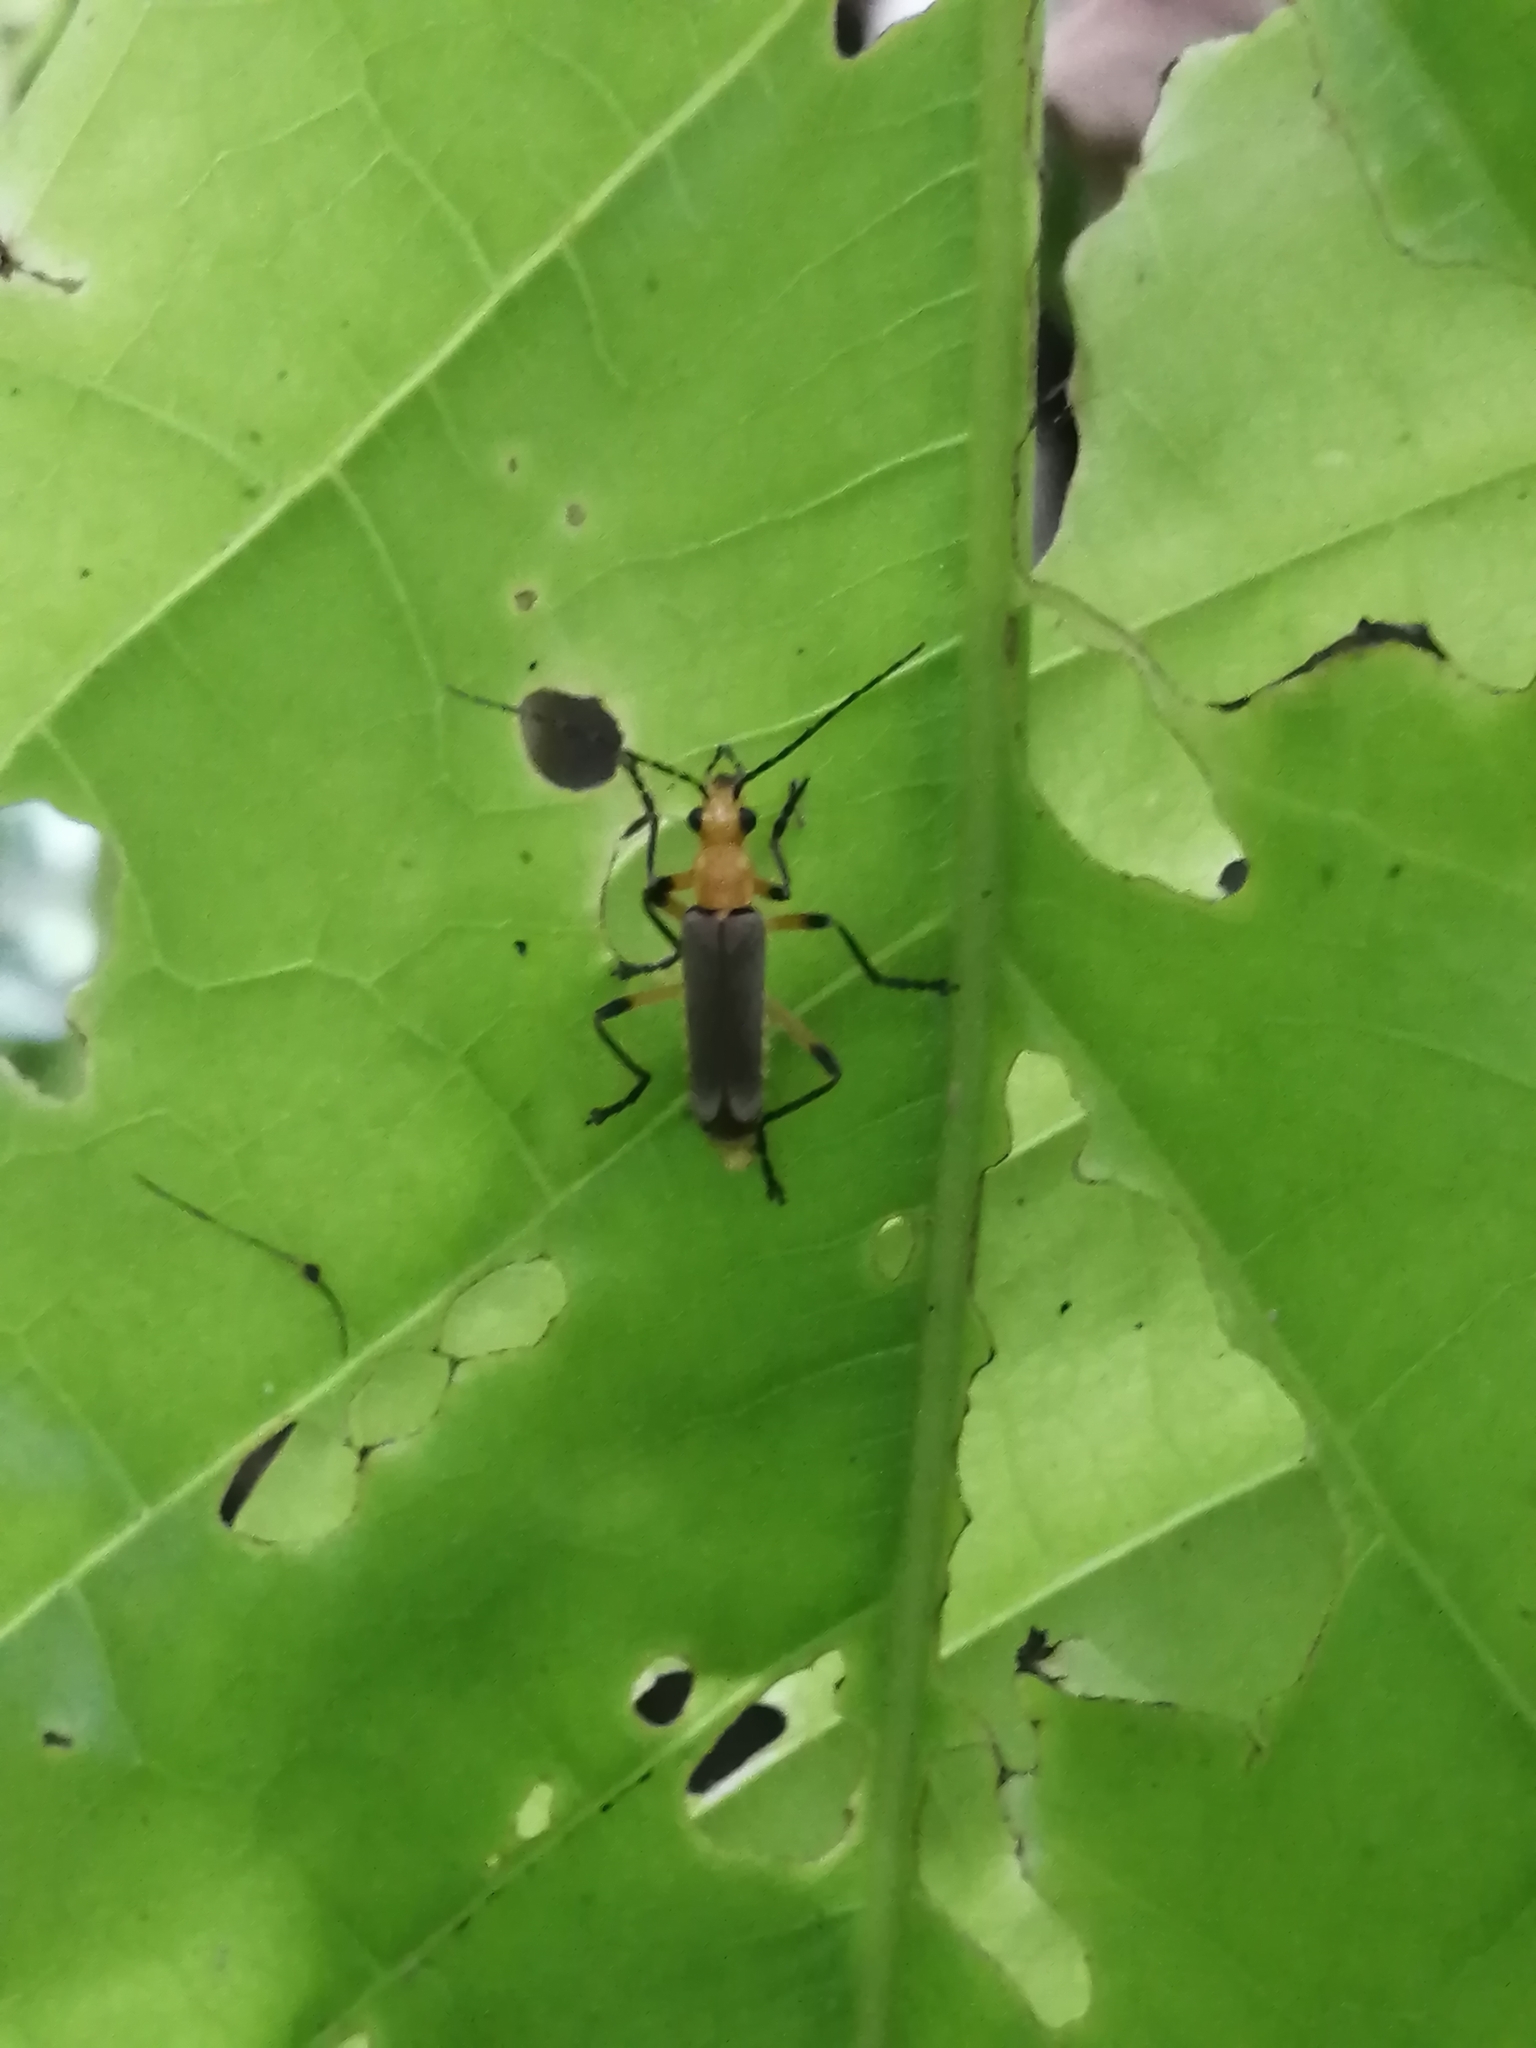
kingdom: Animalia
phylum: Arthropoda
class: Insecta
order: Coleoptera
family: Cantharidae
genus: Chauliognathus
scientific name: Chauliognathus
